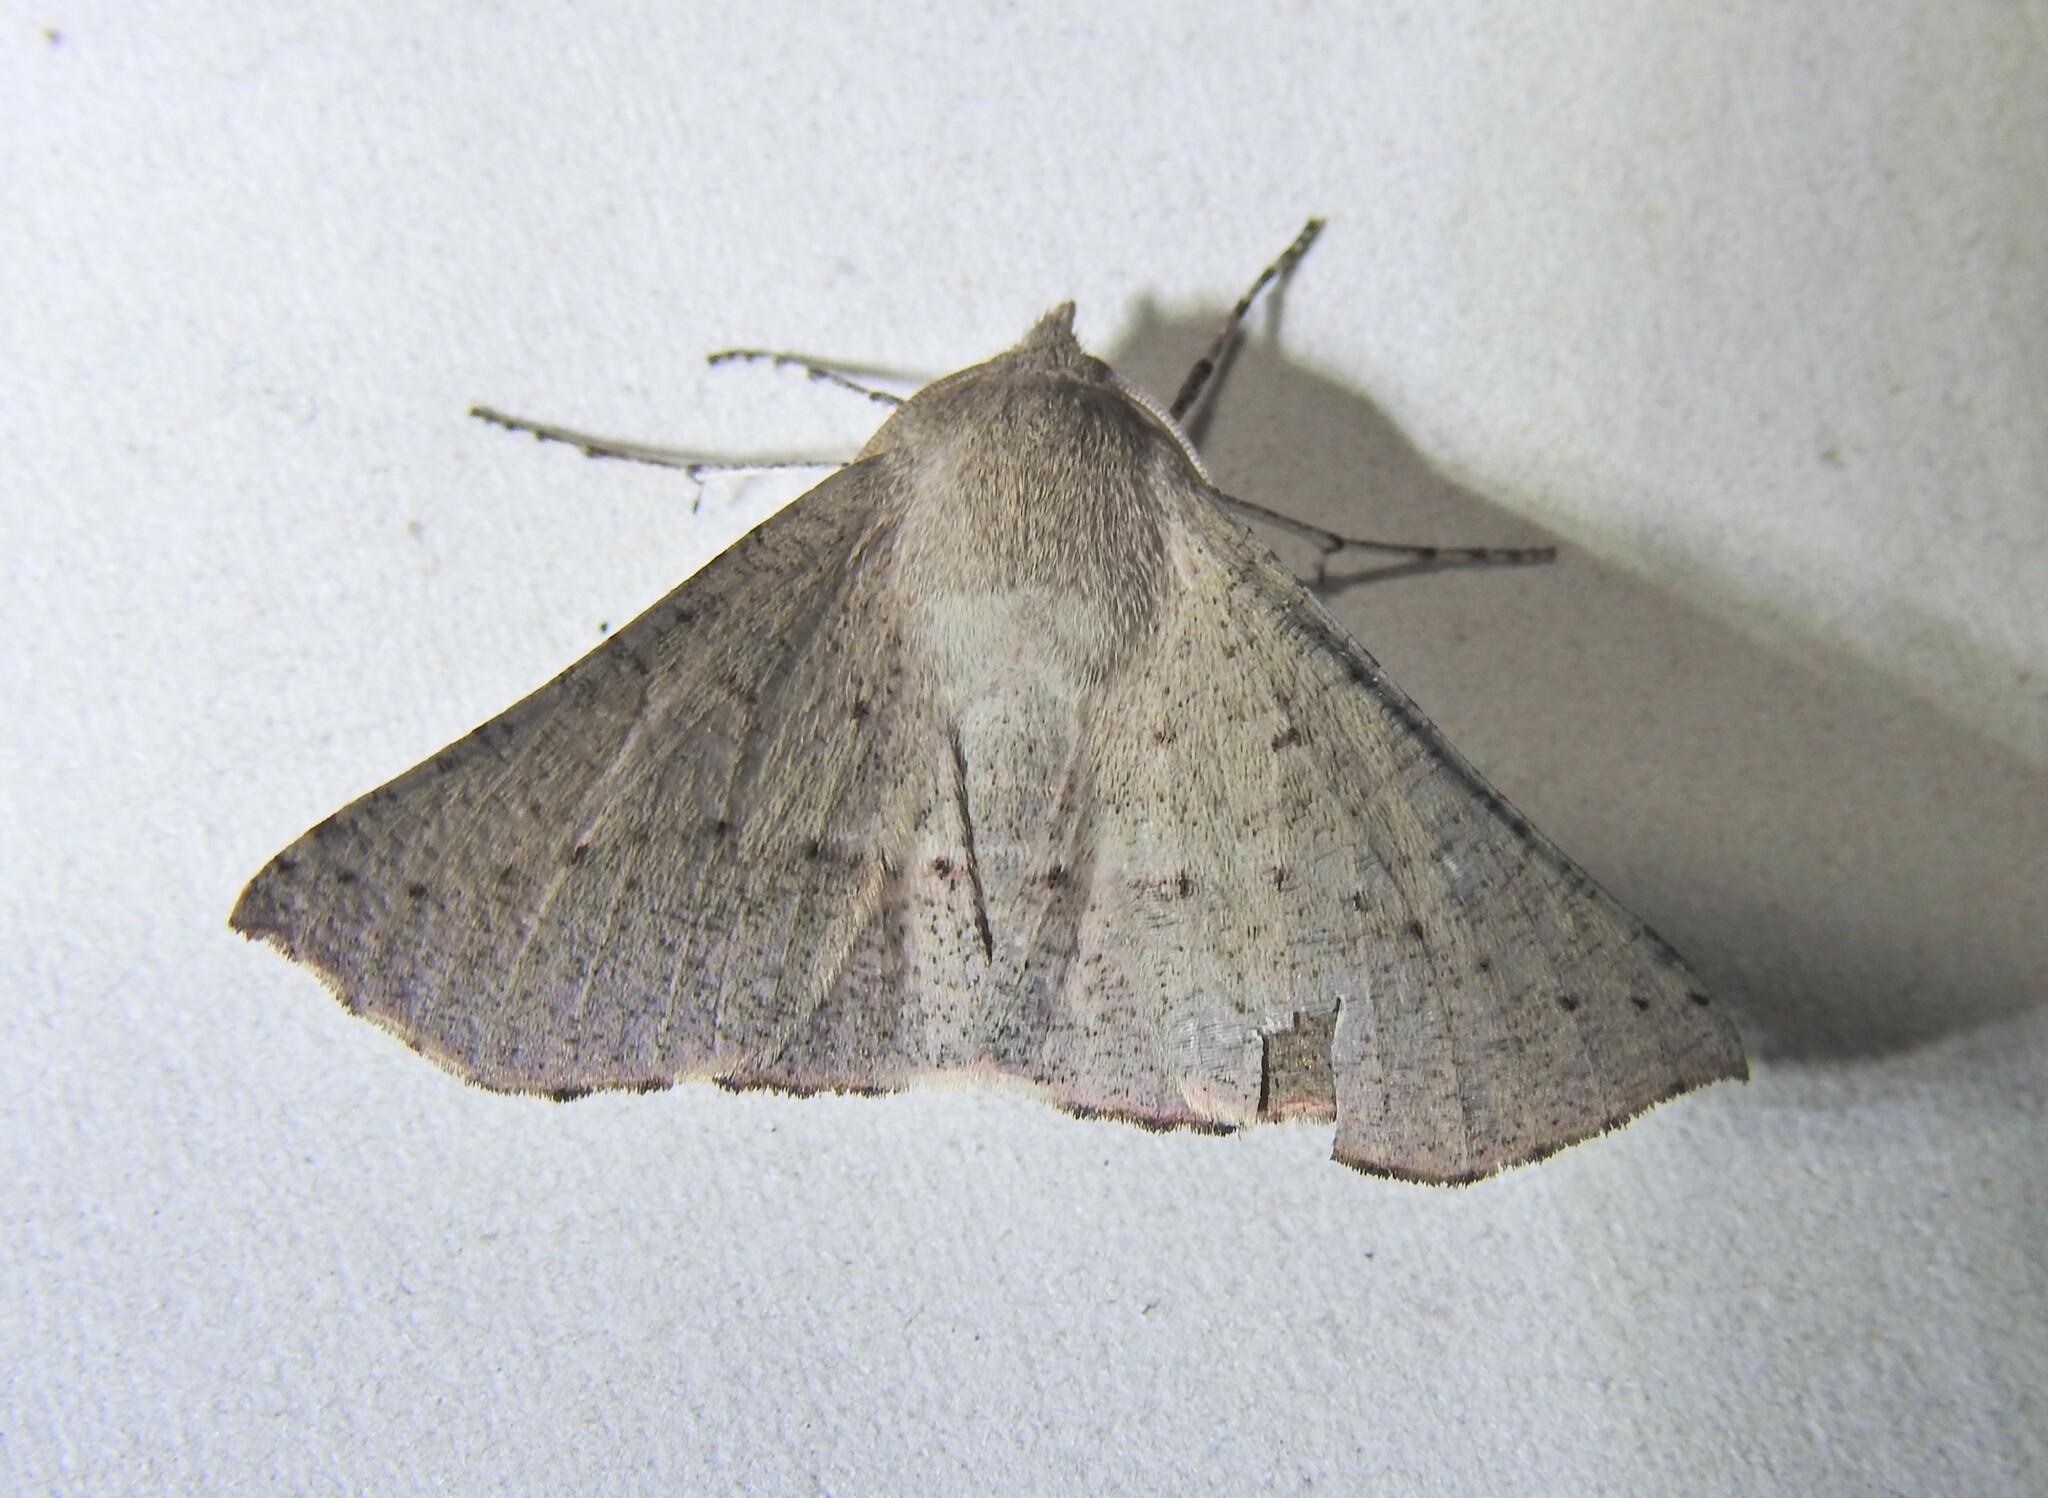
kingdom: Animalia
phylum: Arthropoda
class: Insecta
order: Lepidoptera
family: Geometridae
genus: Oenochroma
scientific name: Oenochroma subustaria
